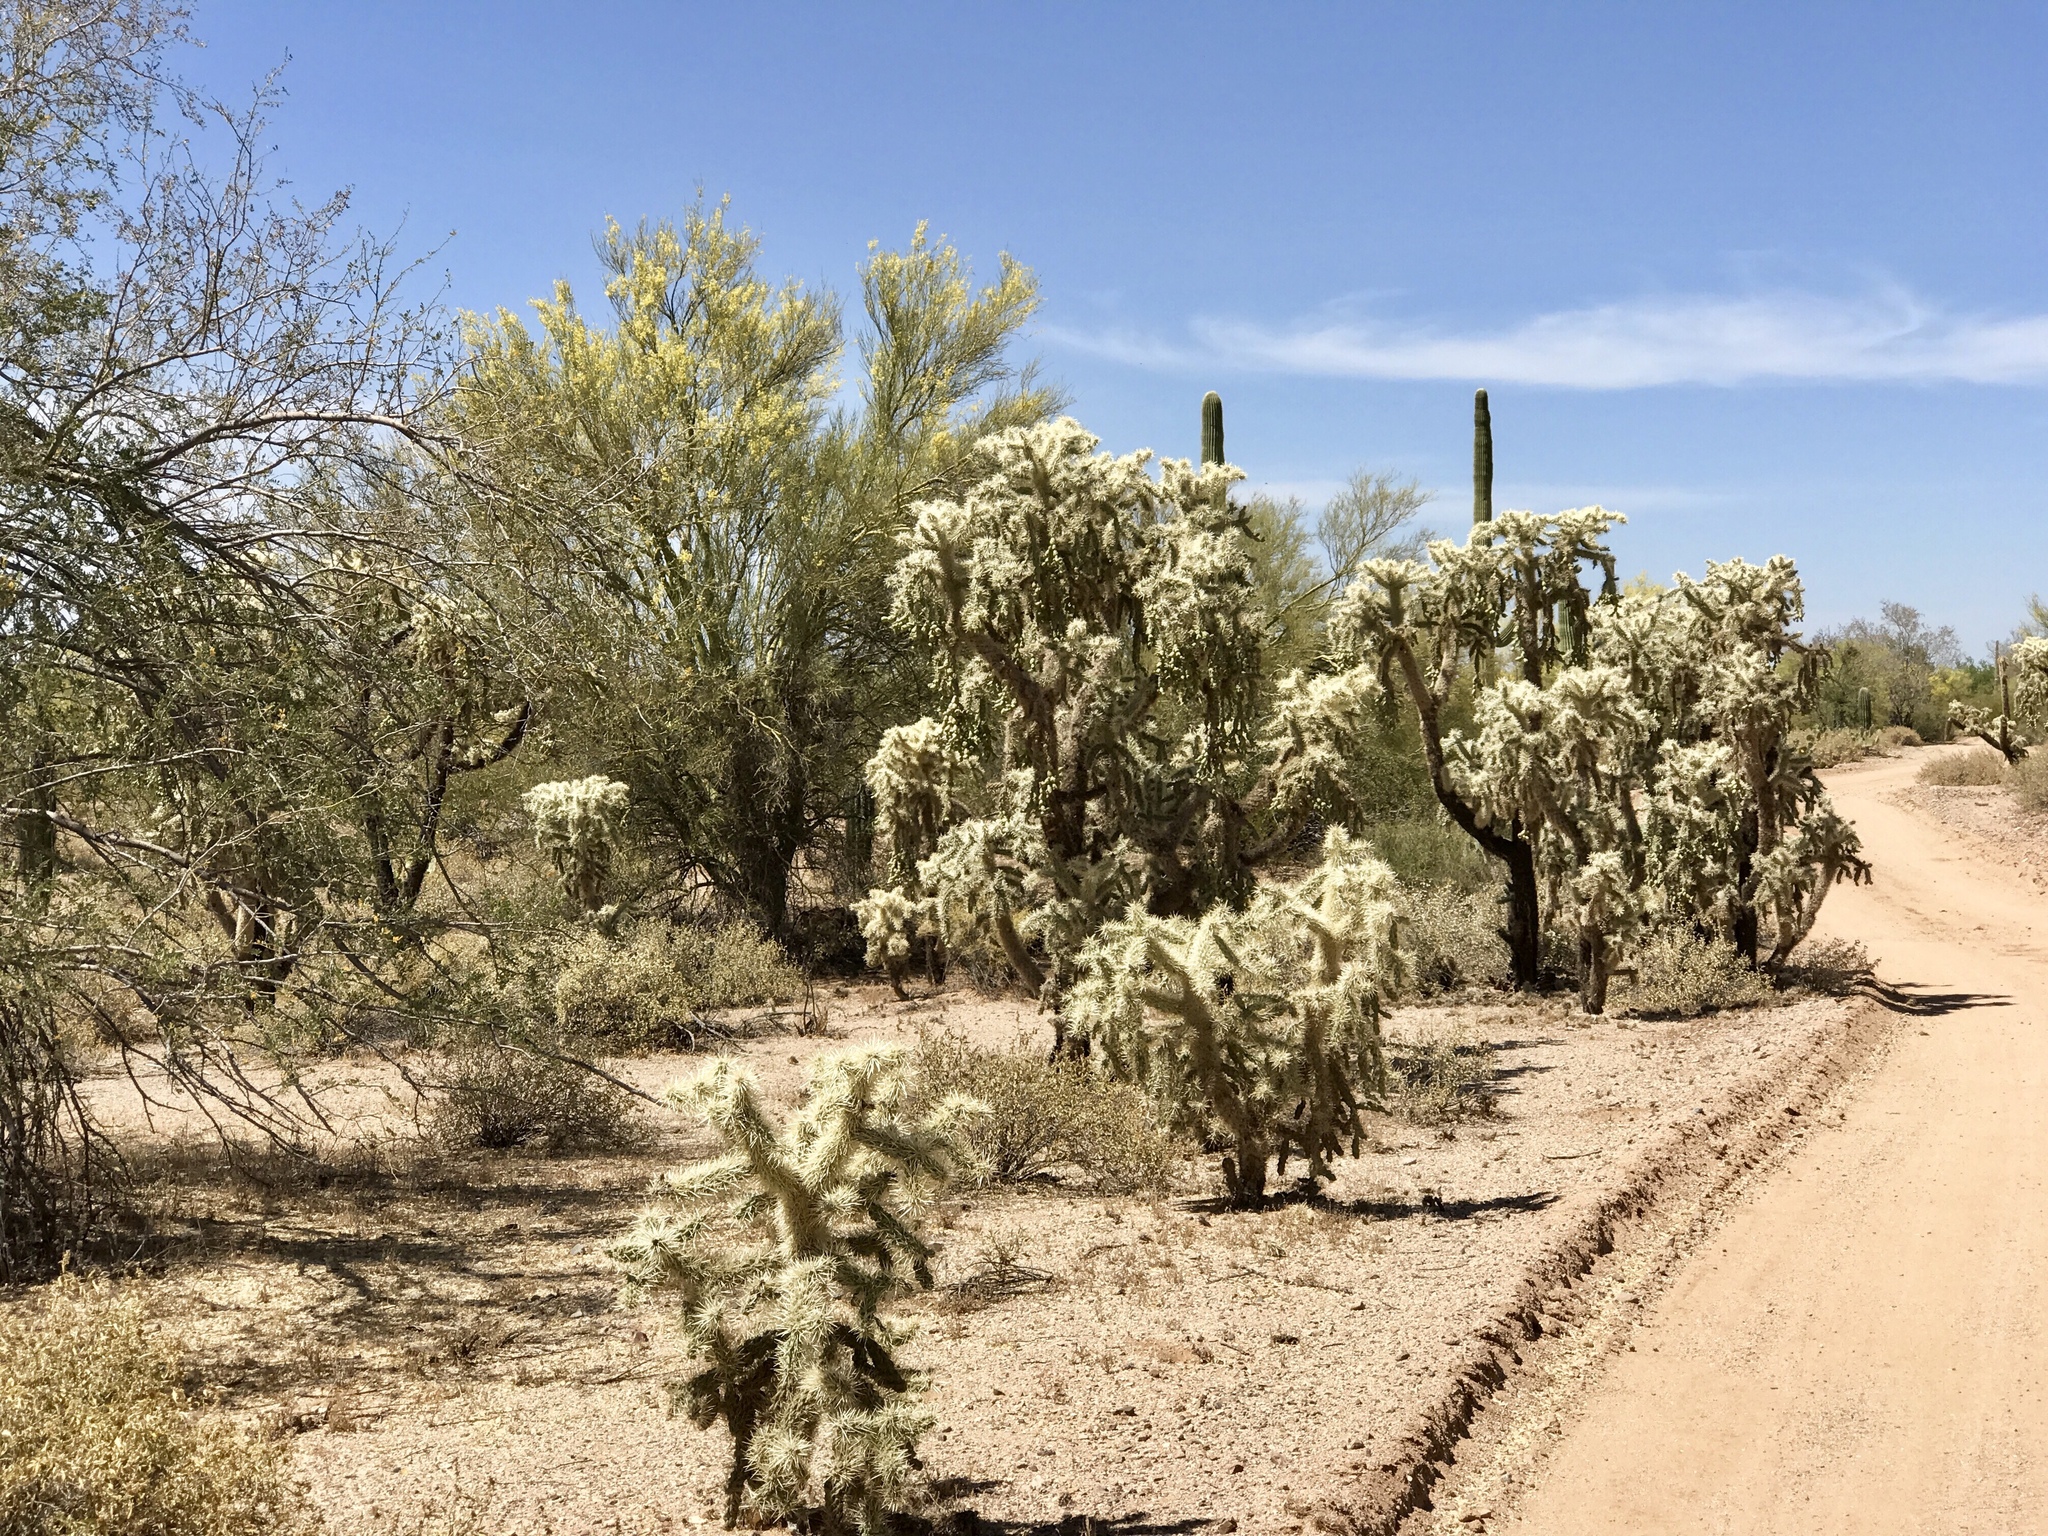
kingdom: Plantae
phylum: Tracheophyta
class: Magnoliopsida
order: Caryophyllales
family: Cactaceae
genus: Cylindropuntia
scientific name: Cylindropuntia fulgida
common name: Jumping cholla
